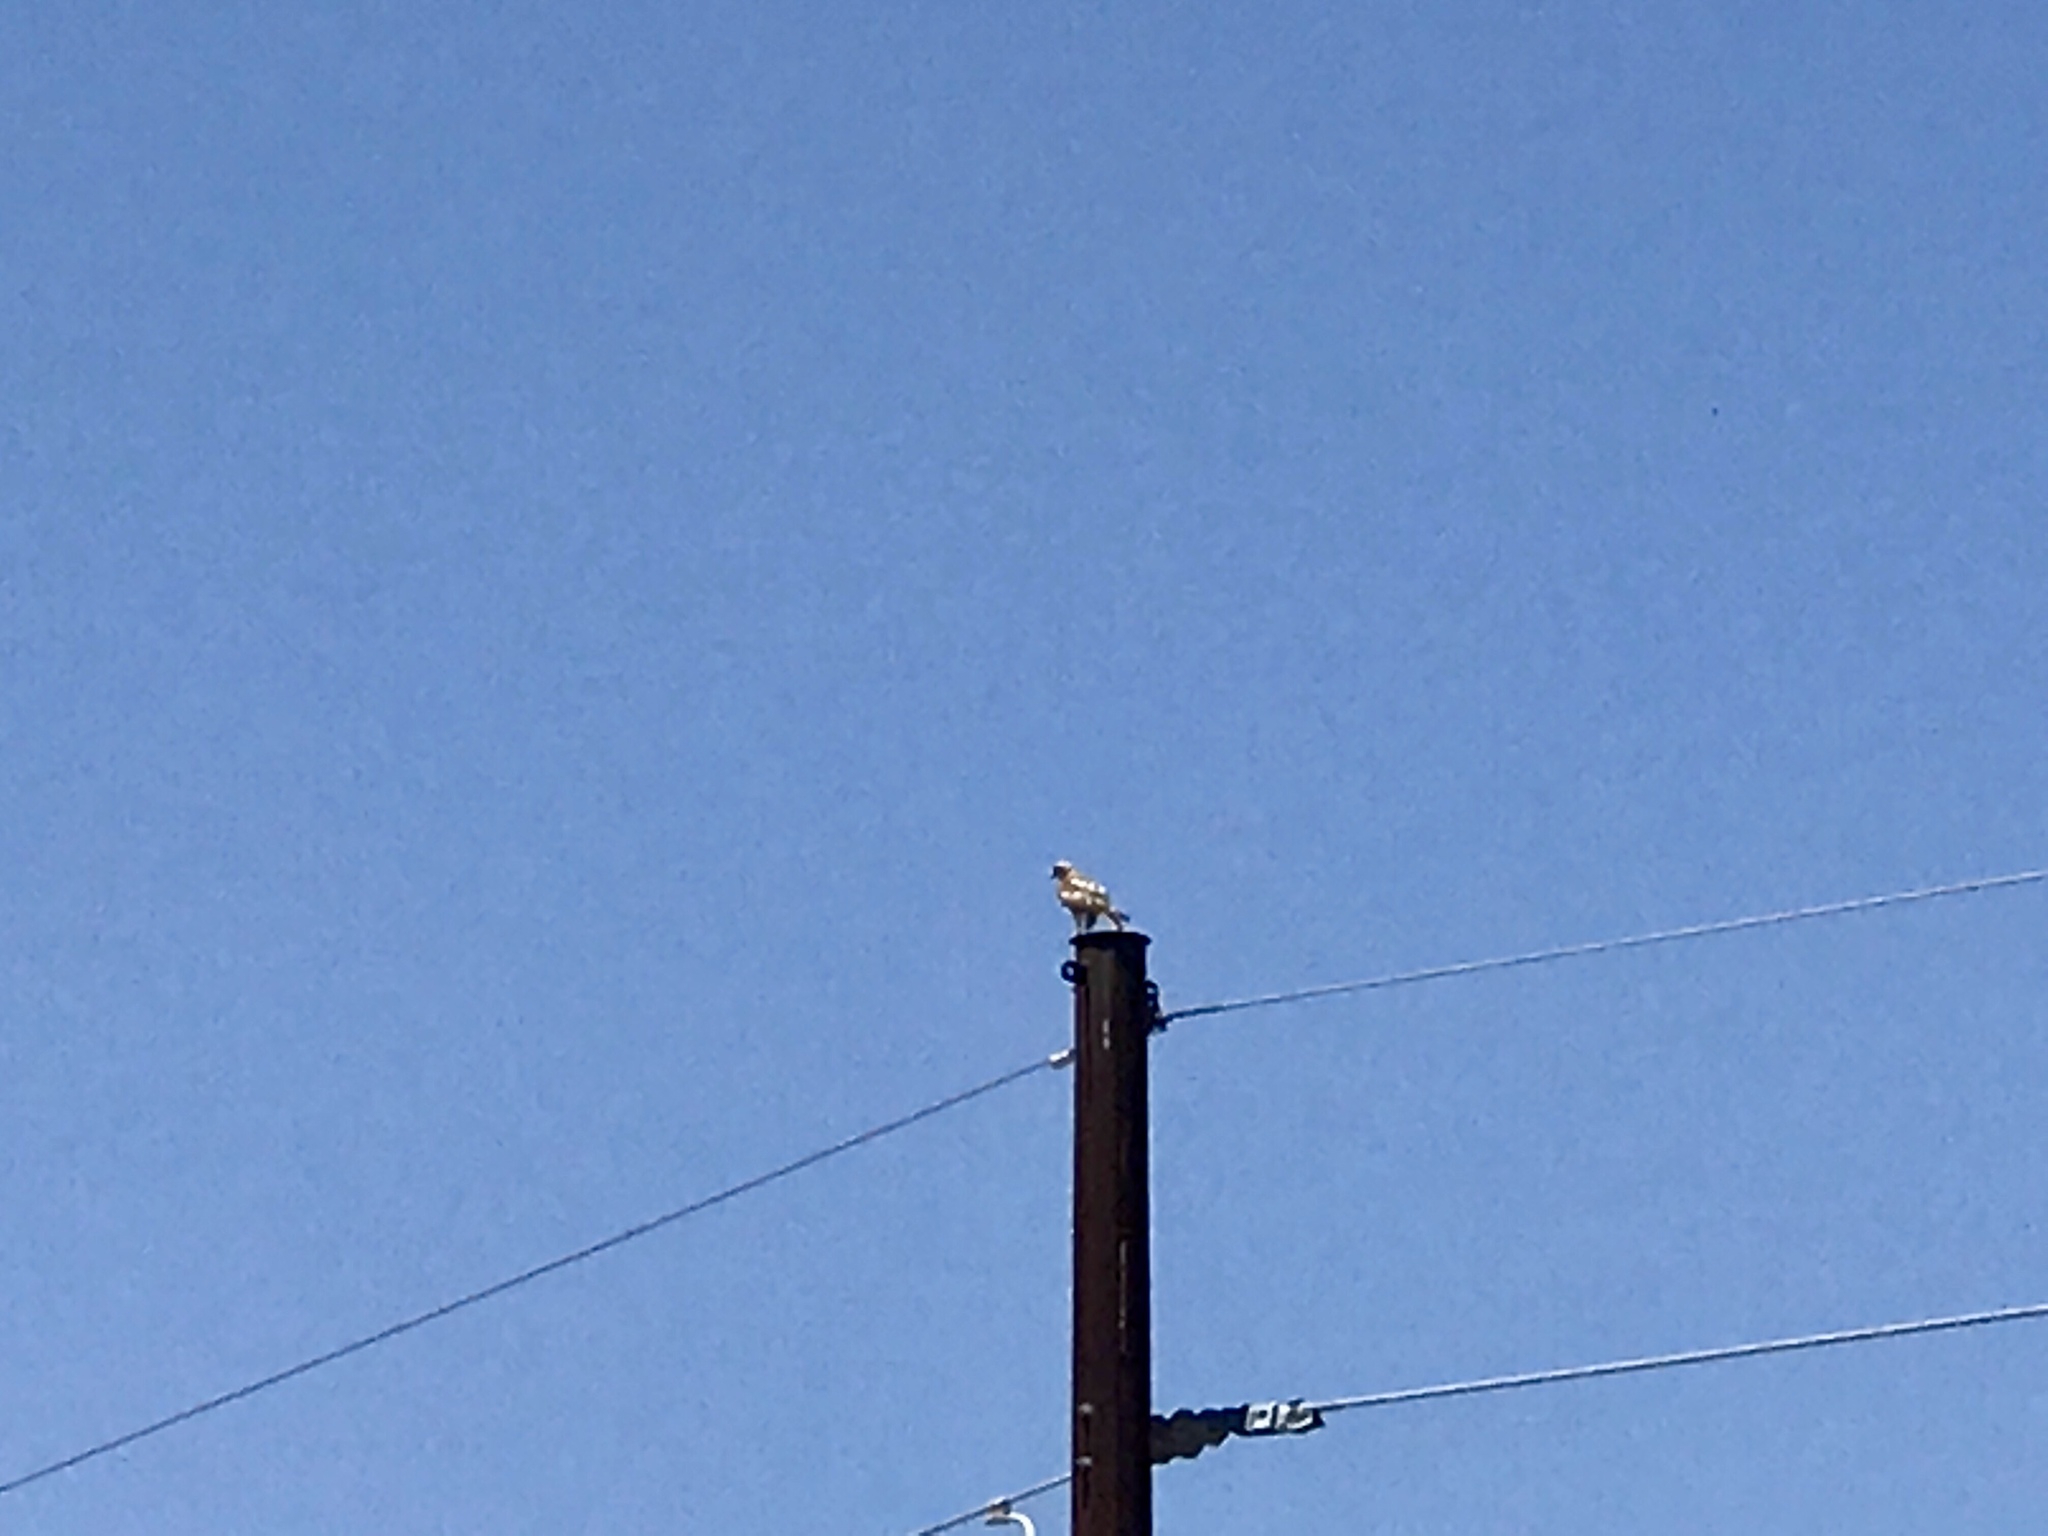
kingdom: Animalia
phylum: Chordata
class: Aves
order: Accipitriformes
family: Accipitridae
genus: Buteo
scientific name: Buteo jamaicensis
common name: Red-tailed hawk
